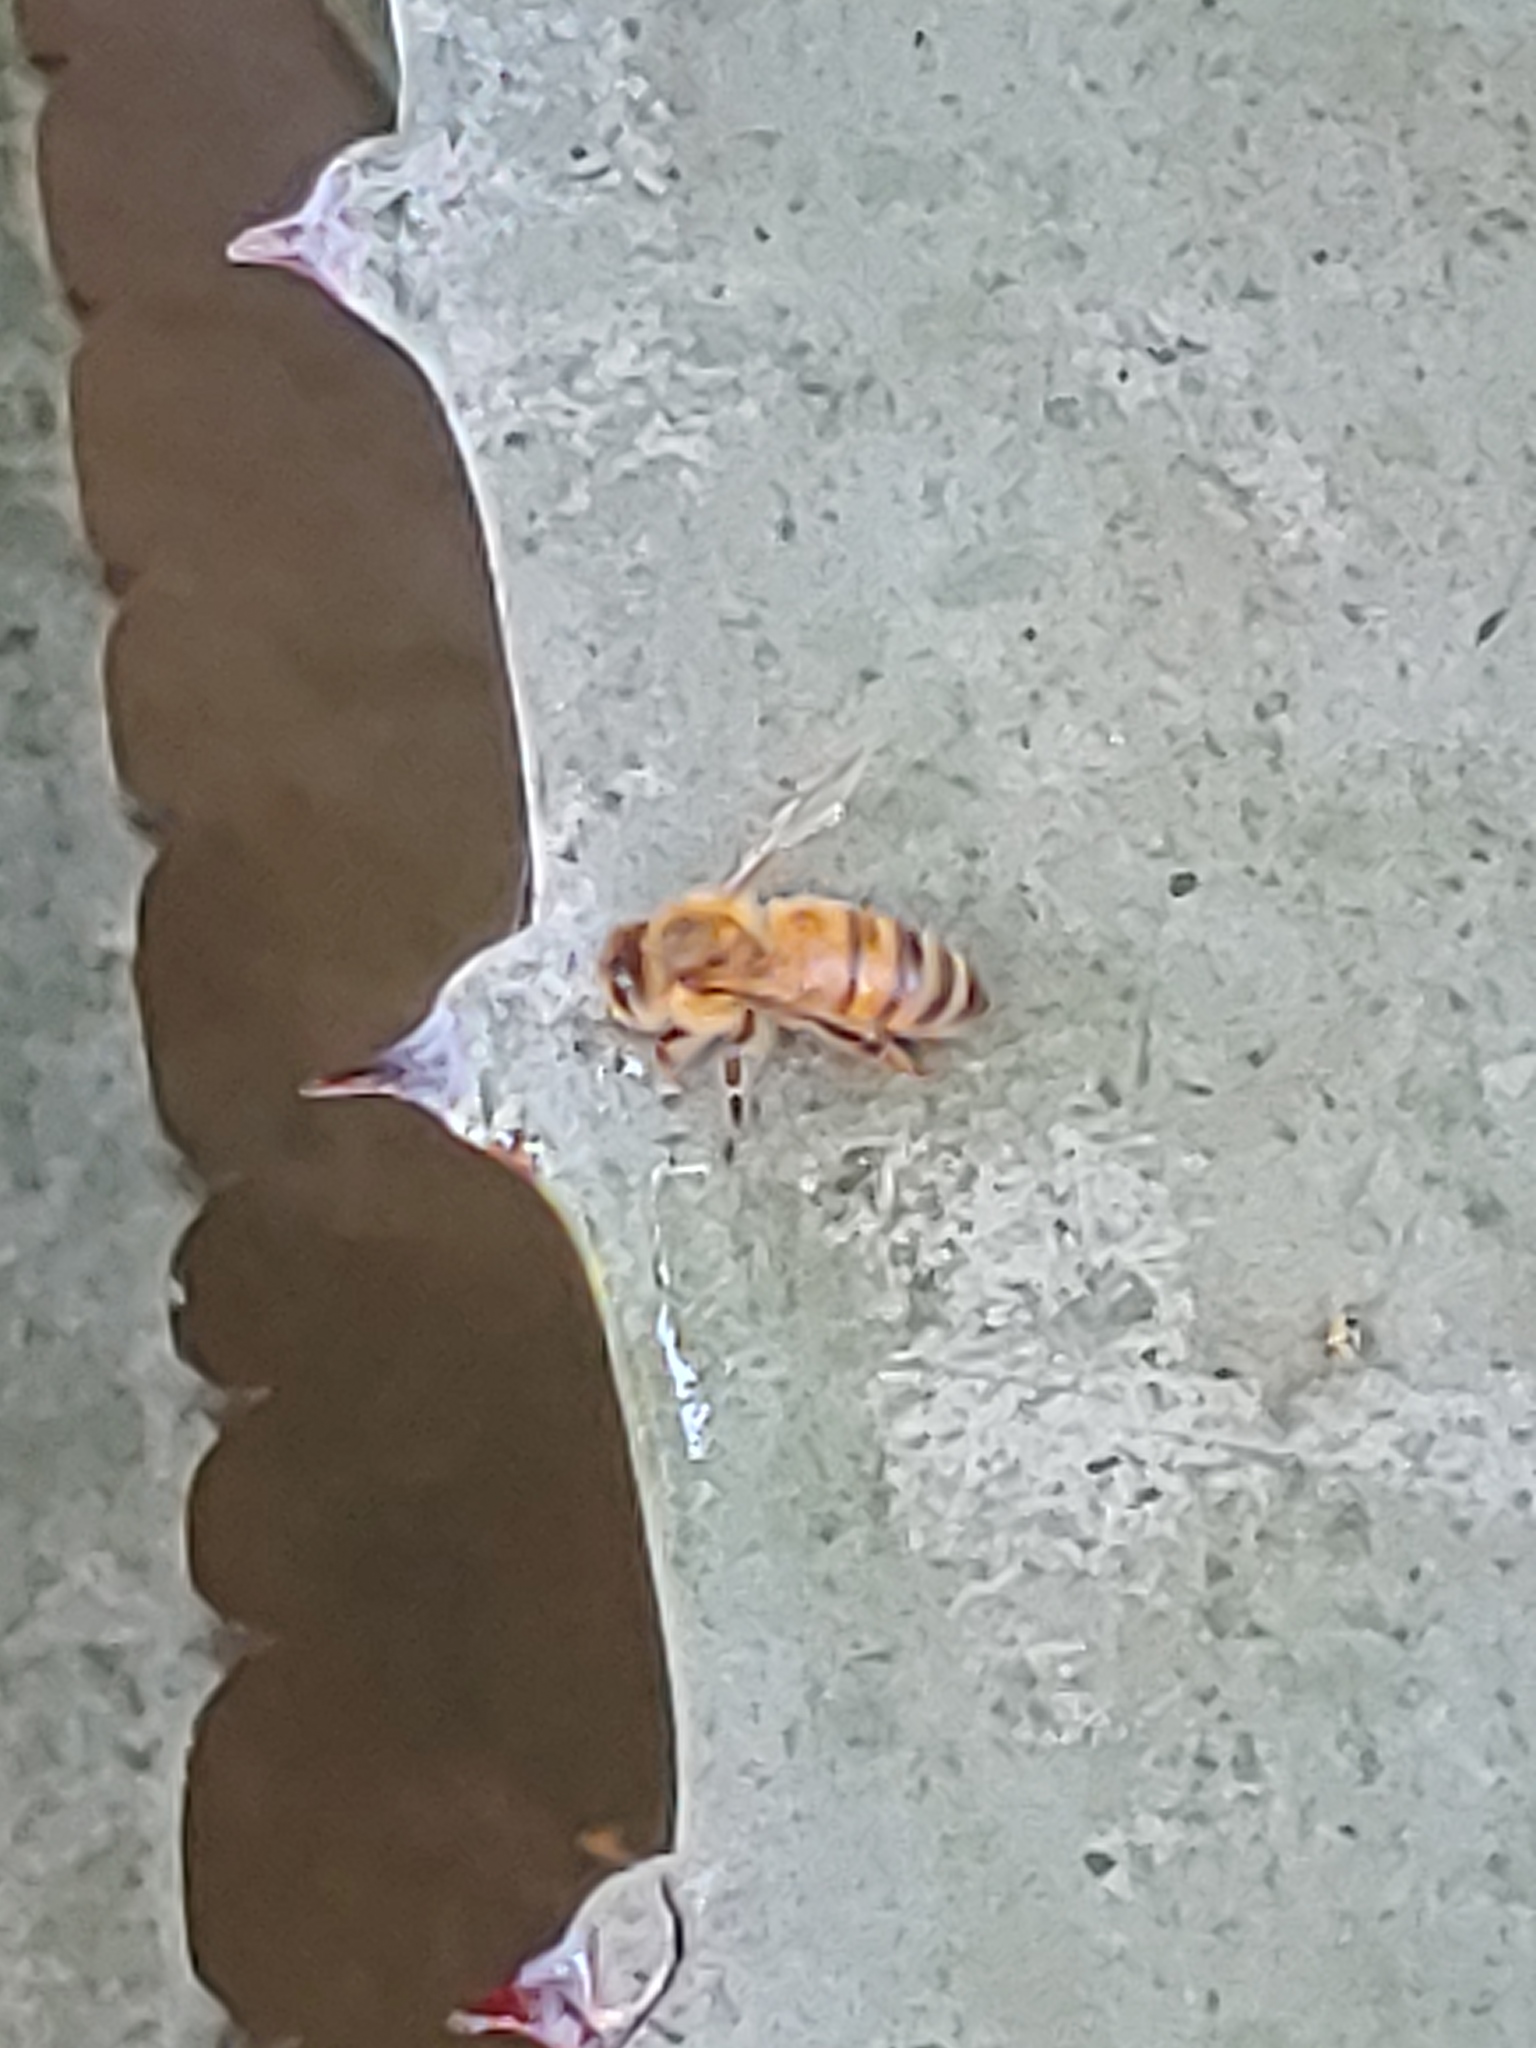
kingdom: Animalia
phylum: Arthropoda
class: Insecta
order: Hymenoptera
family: Apidae
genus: Apis
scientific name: Apis mellifera
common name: Honey bee
